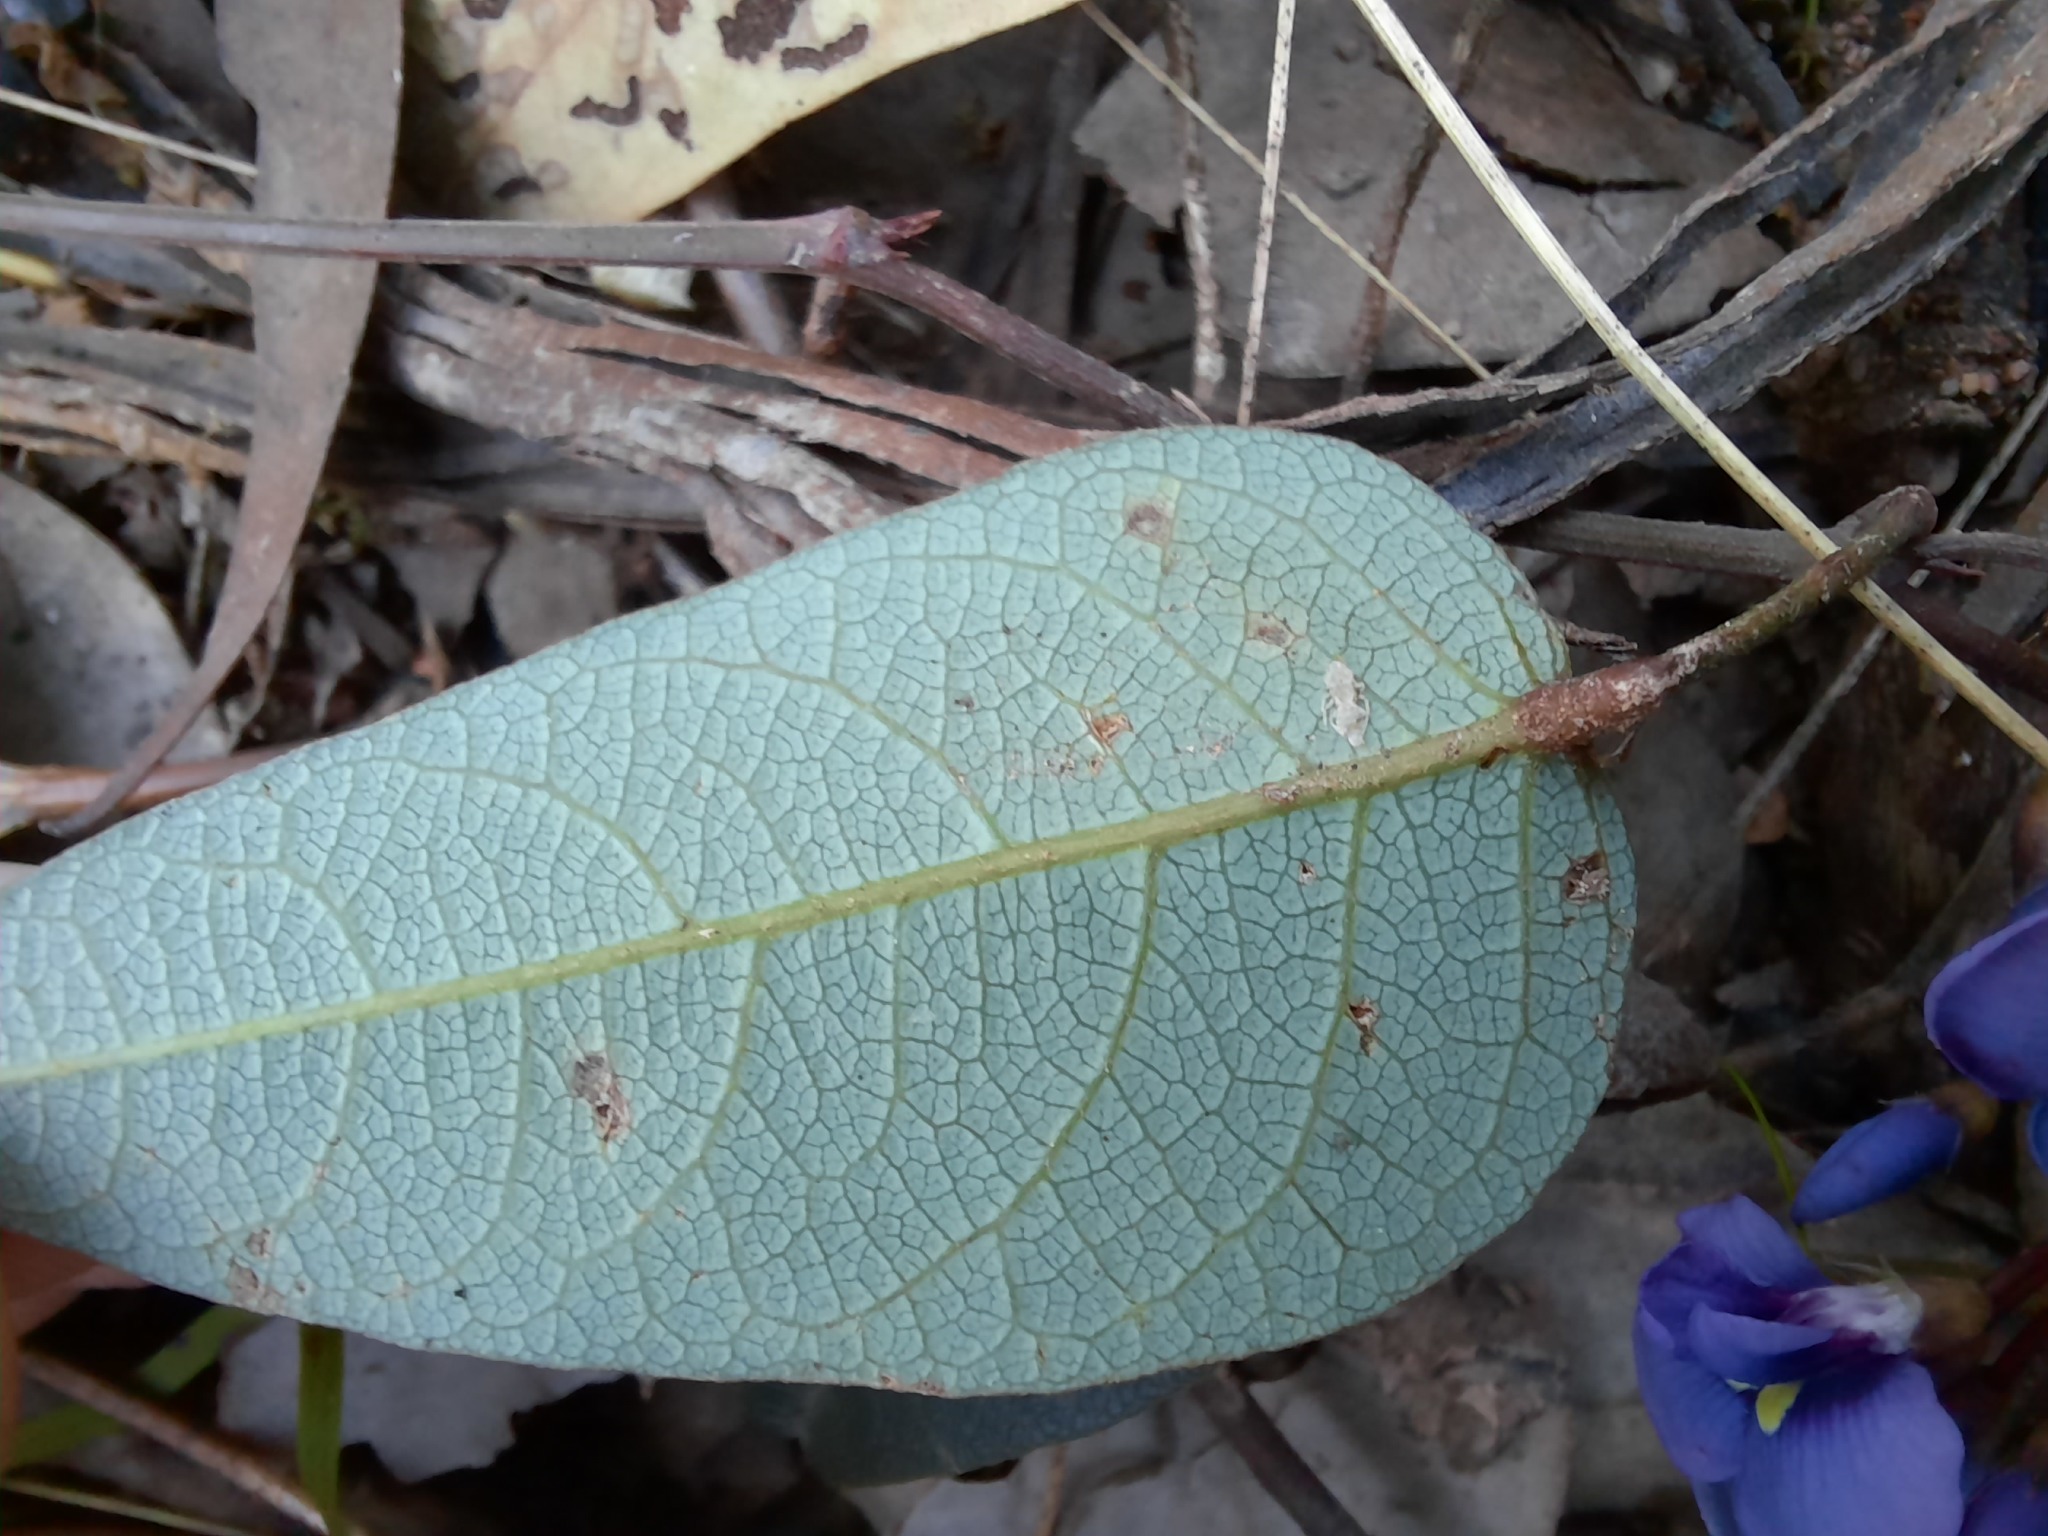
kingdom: Plantae
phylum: Tracheophyta
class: Magnoliopsida
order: Fabales
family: Fabaceae
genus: Hardenbergia
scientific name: Hardenbergia violacea
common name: Coral-pea
